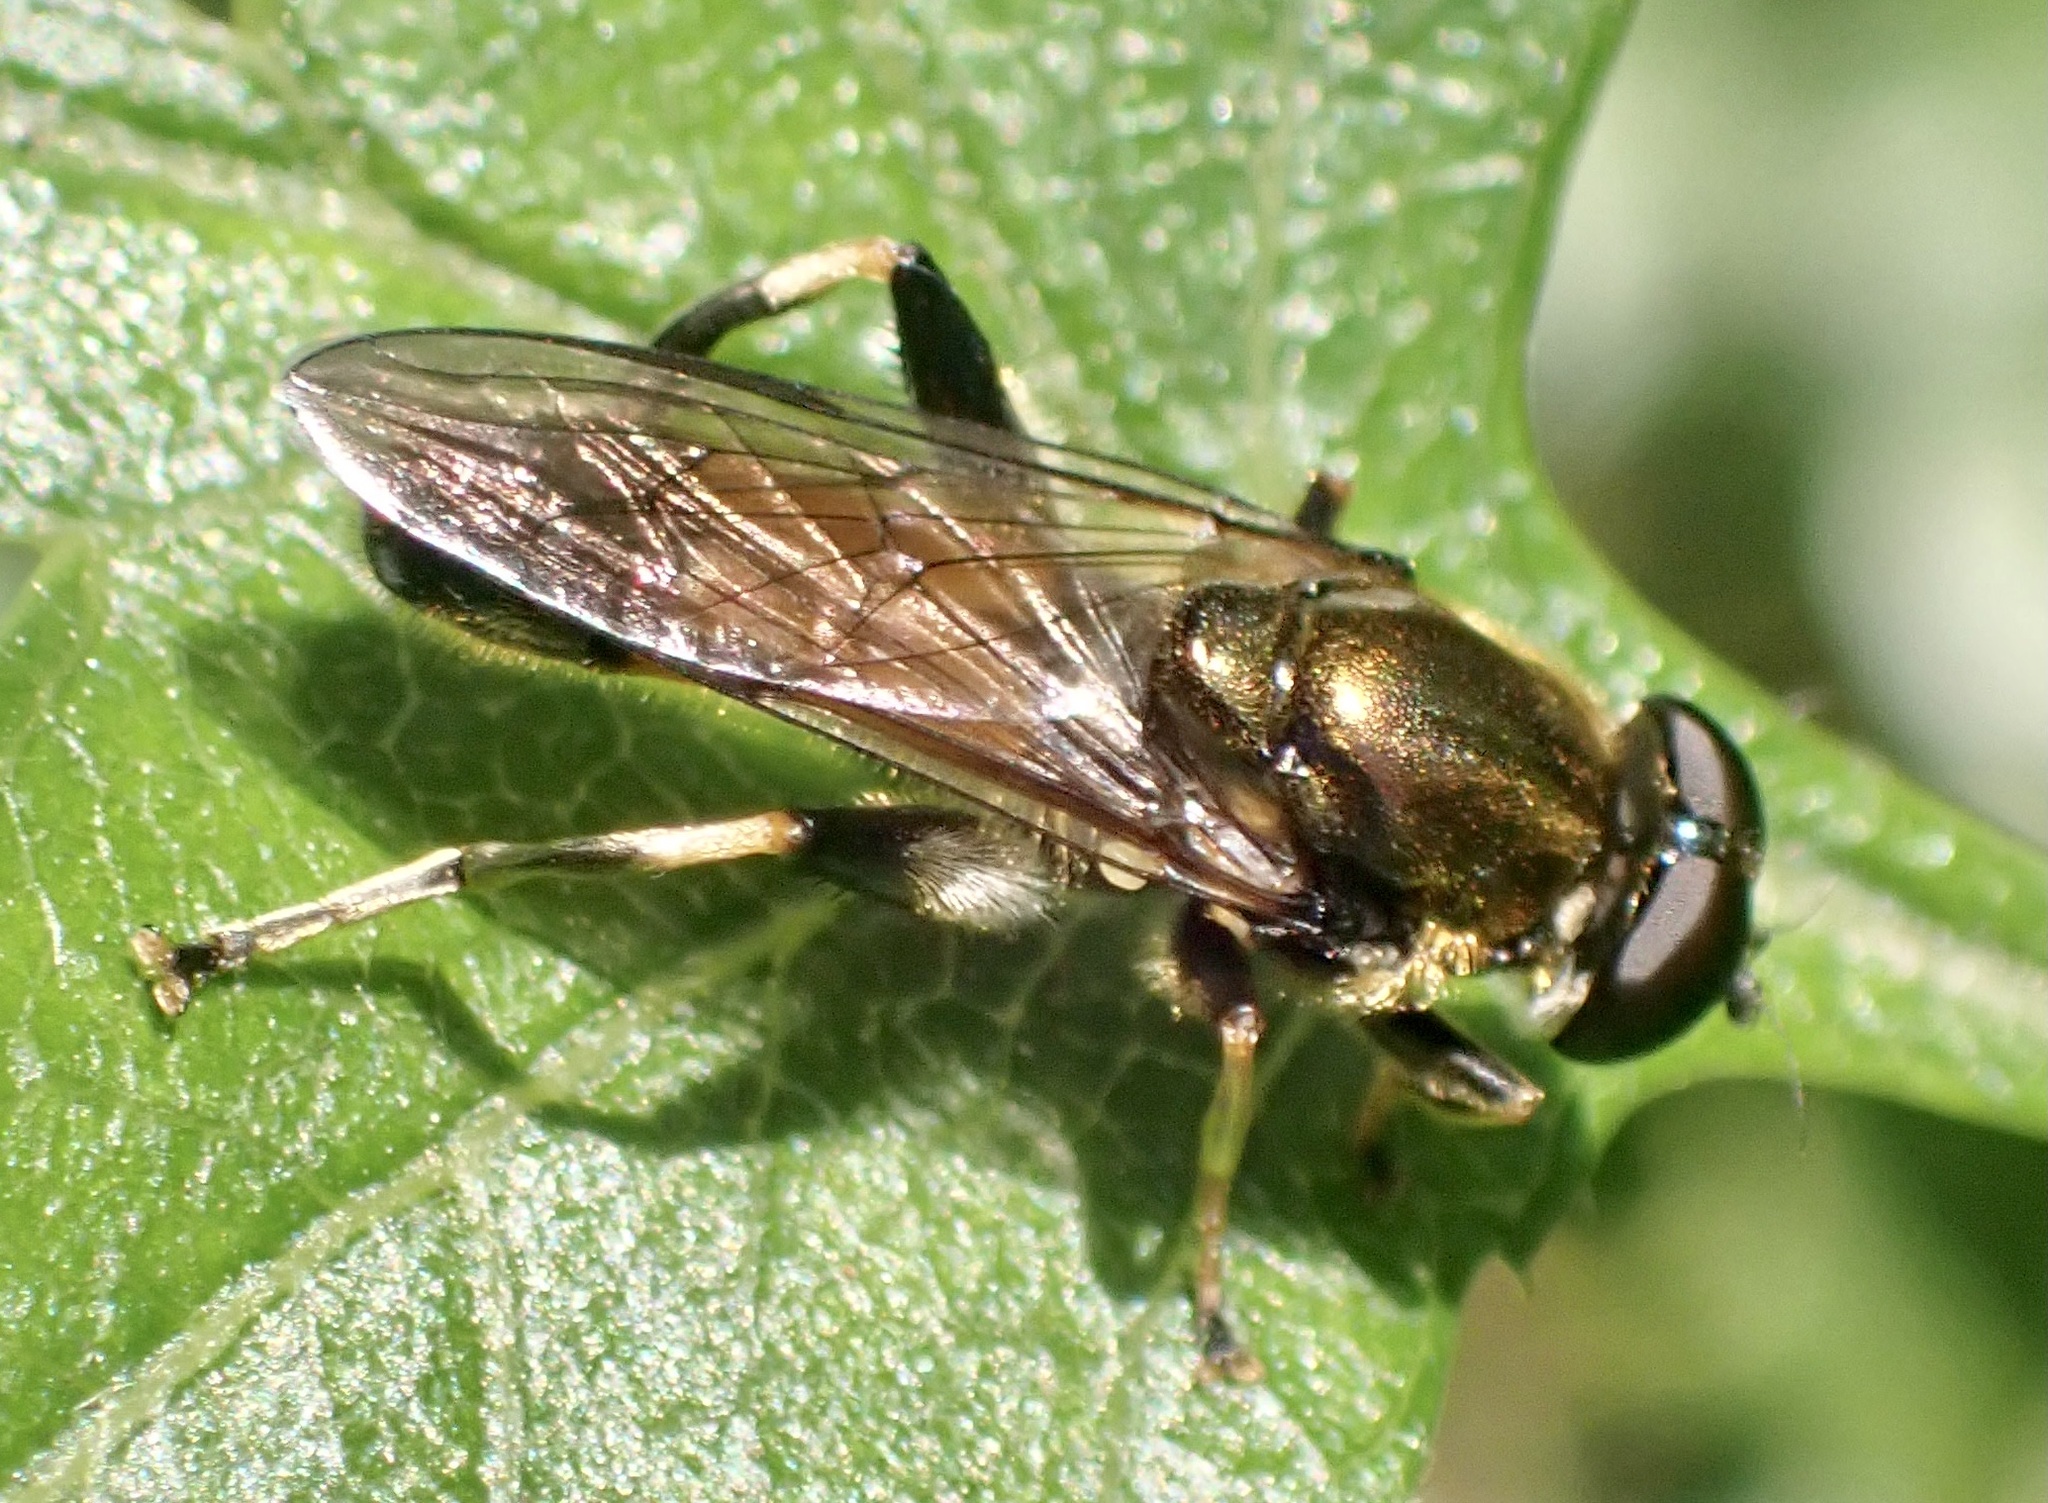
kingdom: Animalia
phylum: Arthropoda
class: Insecta
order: Diptera
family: Syrphidae
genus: Xylota
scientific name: Xylota segnis
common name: Brown-toed forest fly
